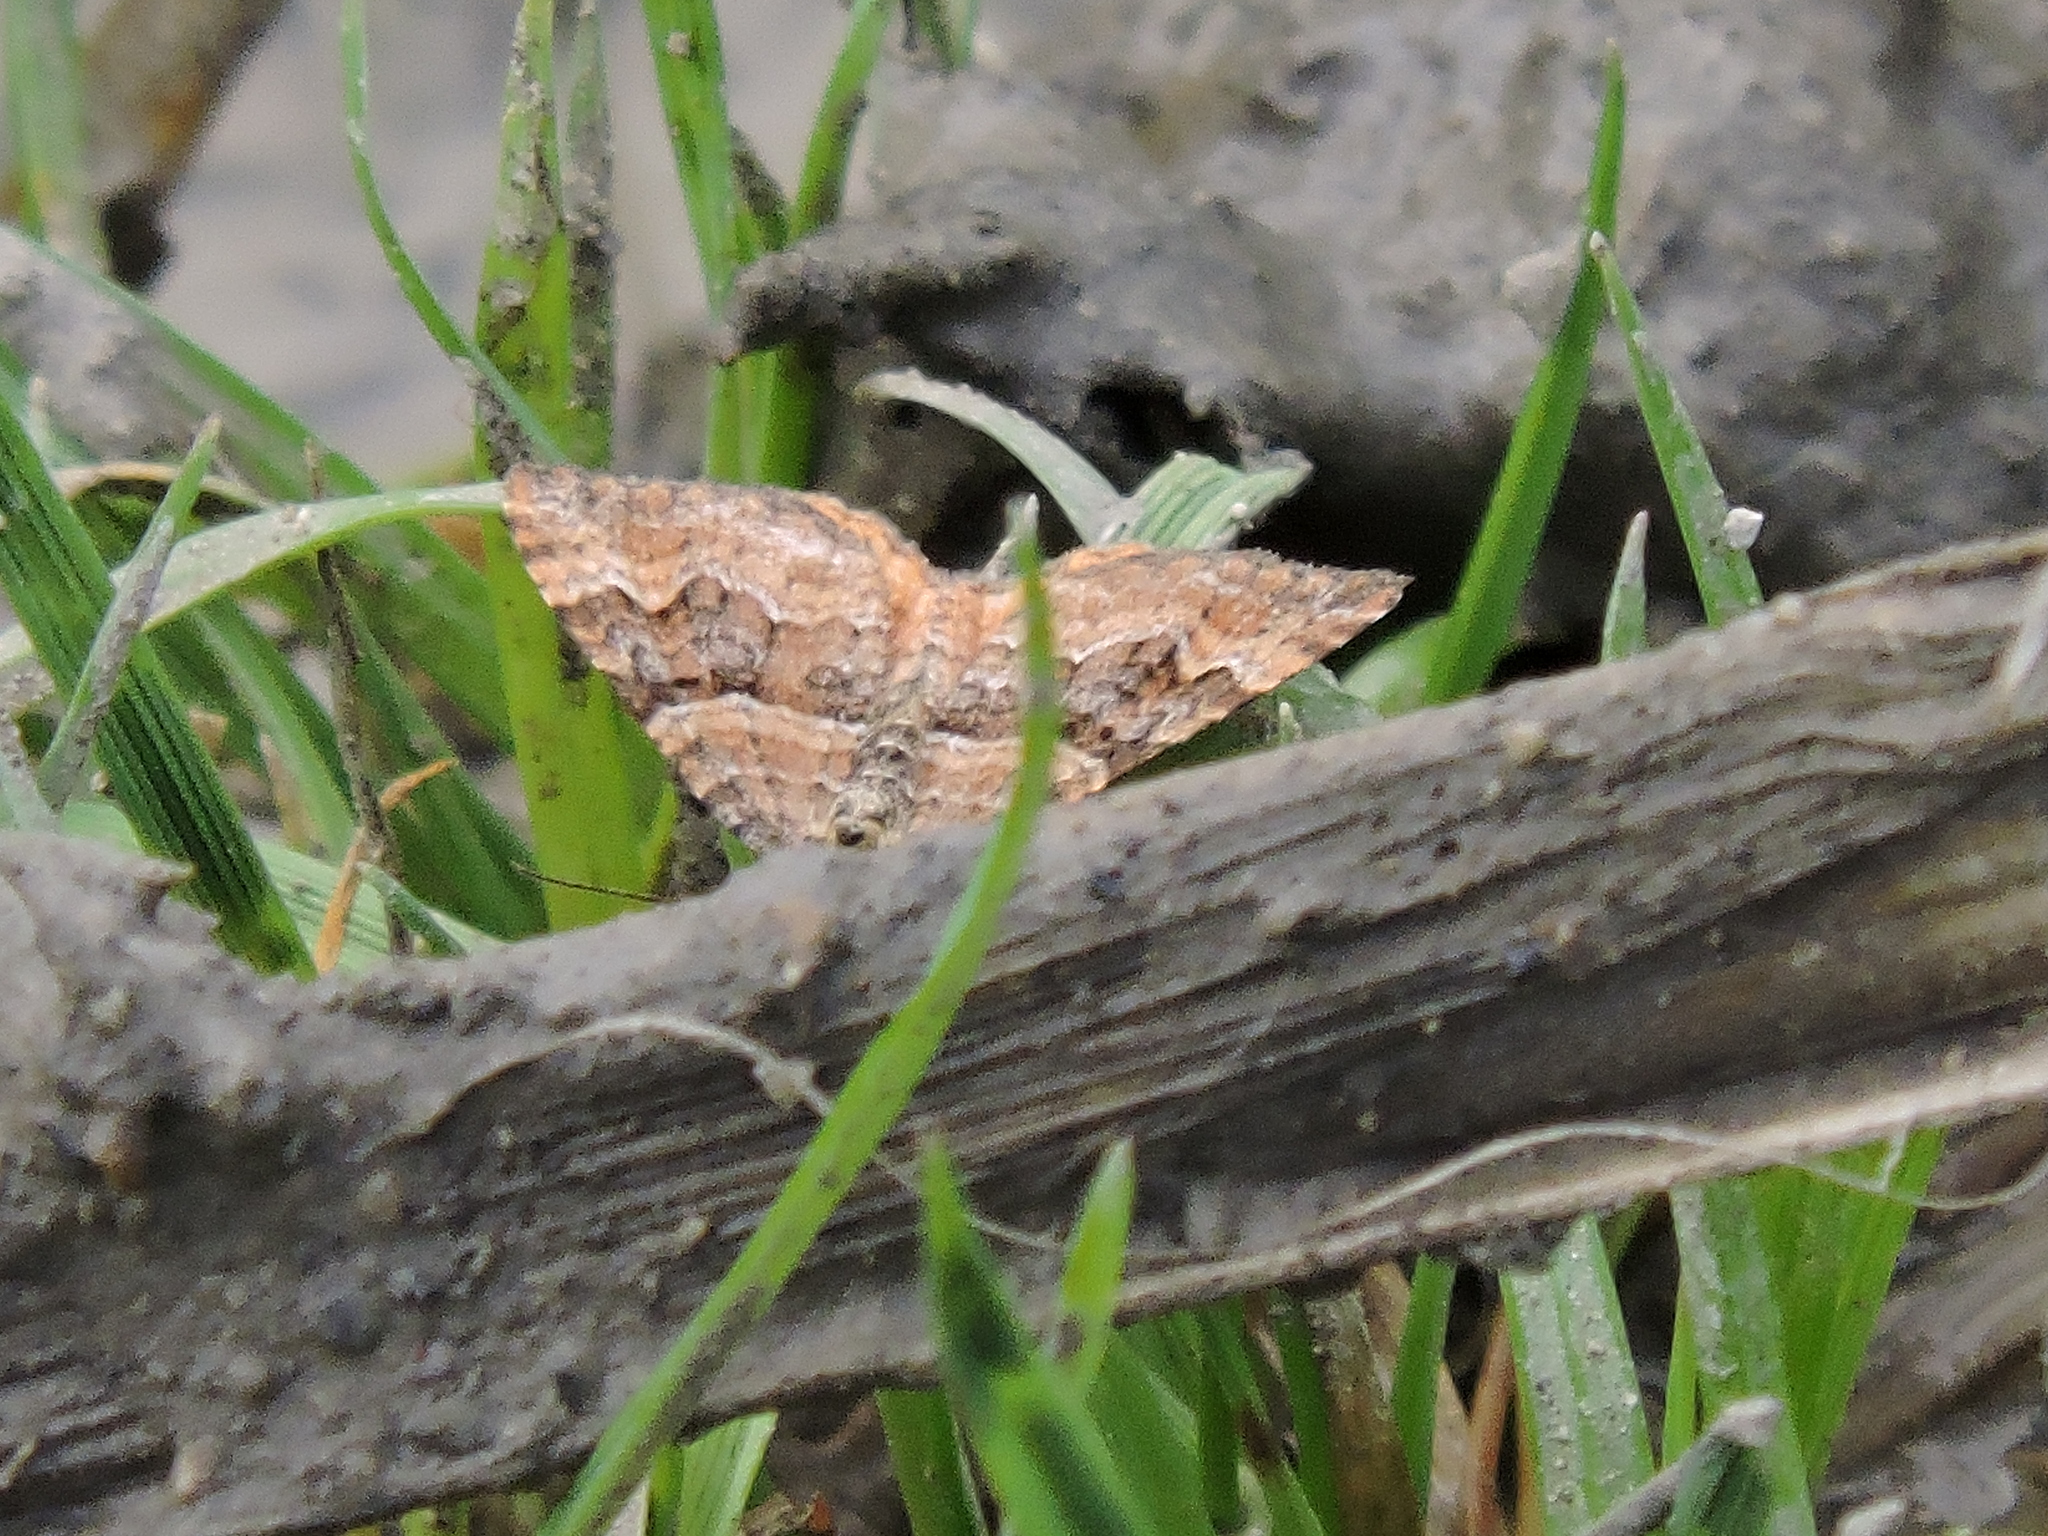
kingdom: Animalia
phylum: Arthropoda
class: Insecta
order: Lepidoptera
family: Geometridae
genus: Epirrhoe
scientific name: Epirrhoe plebeculata
